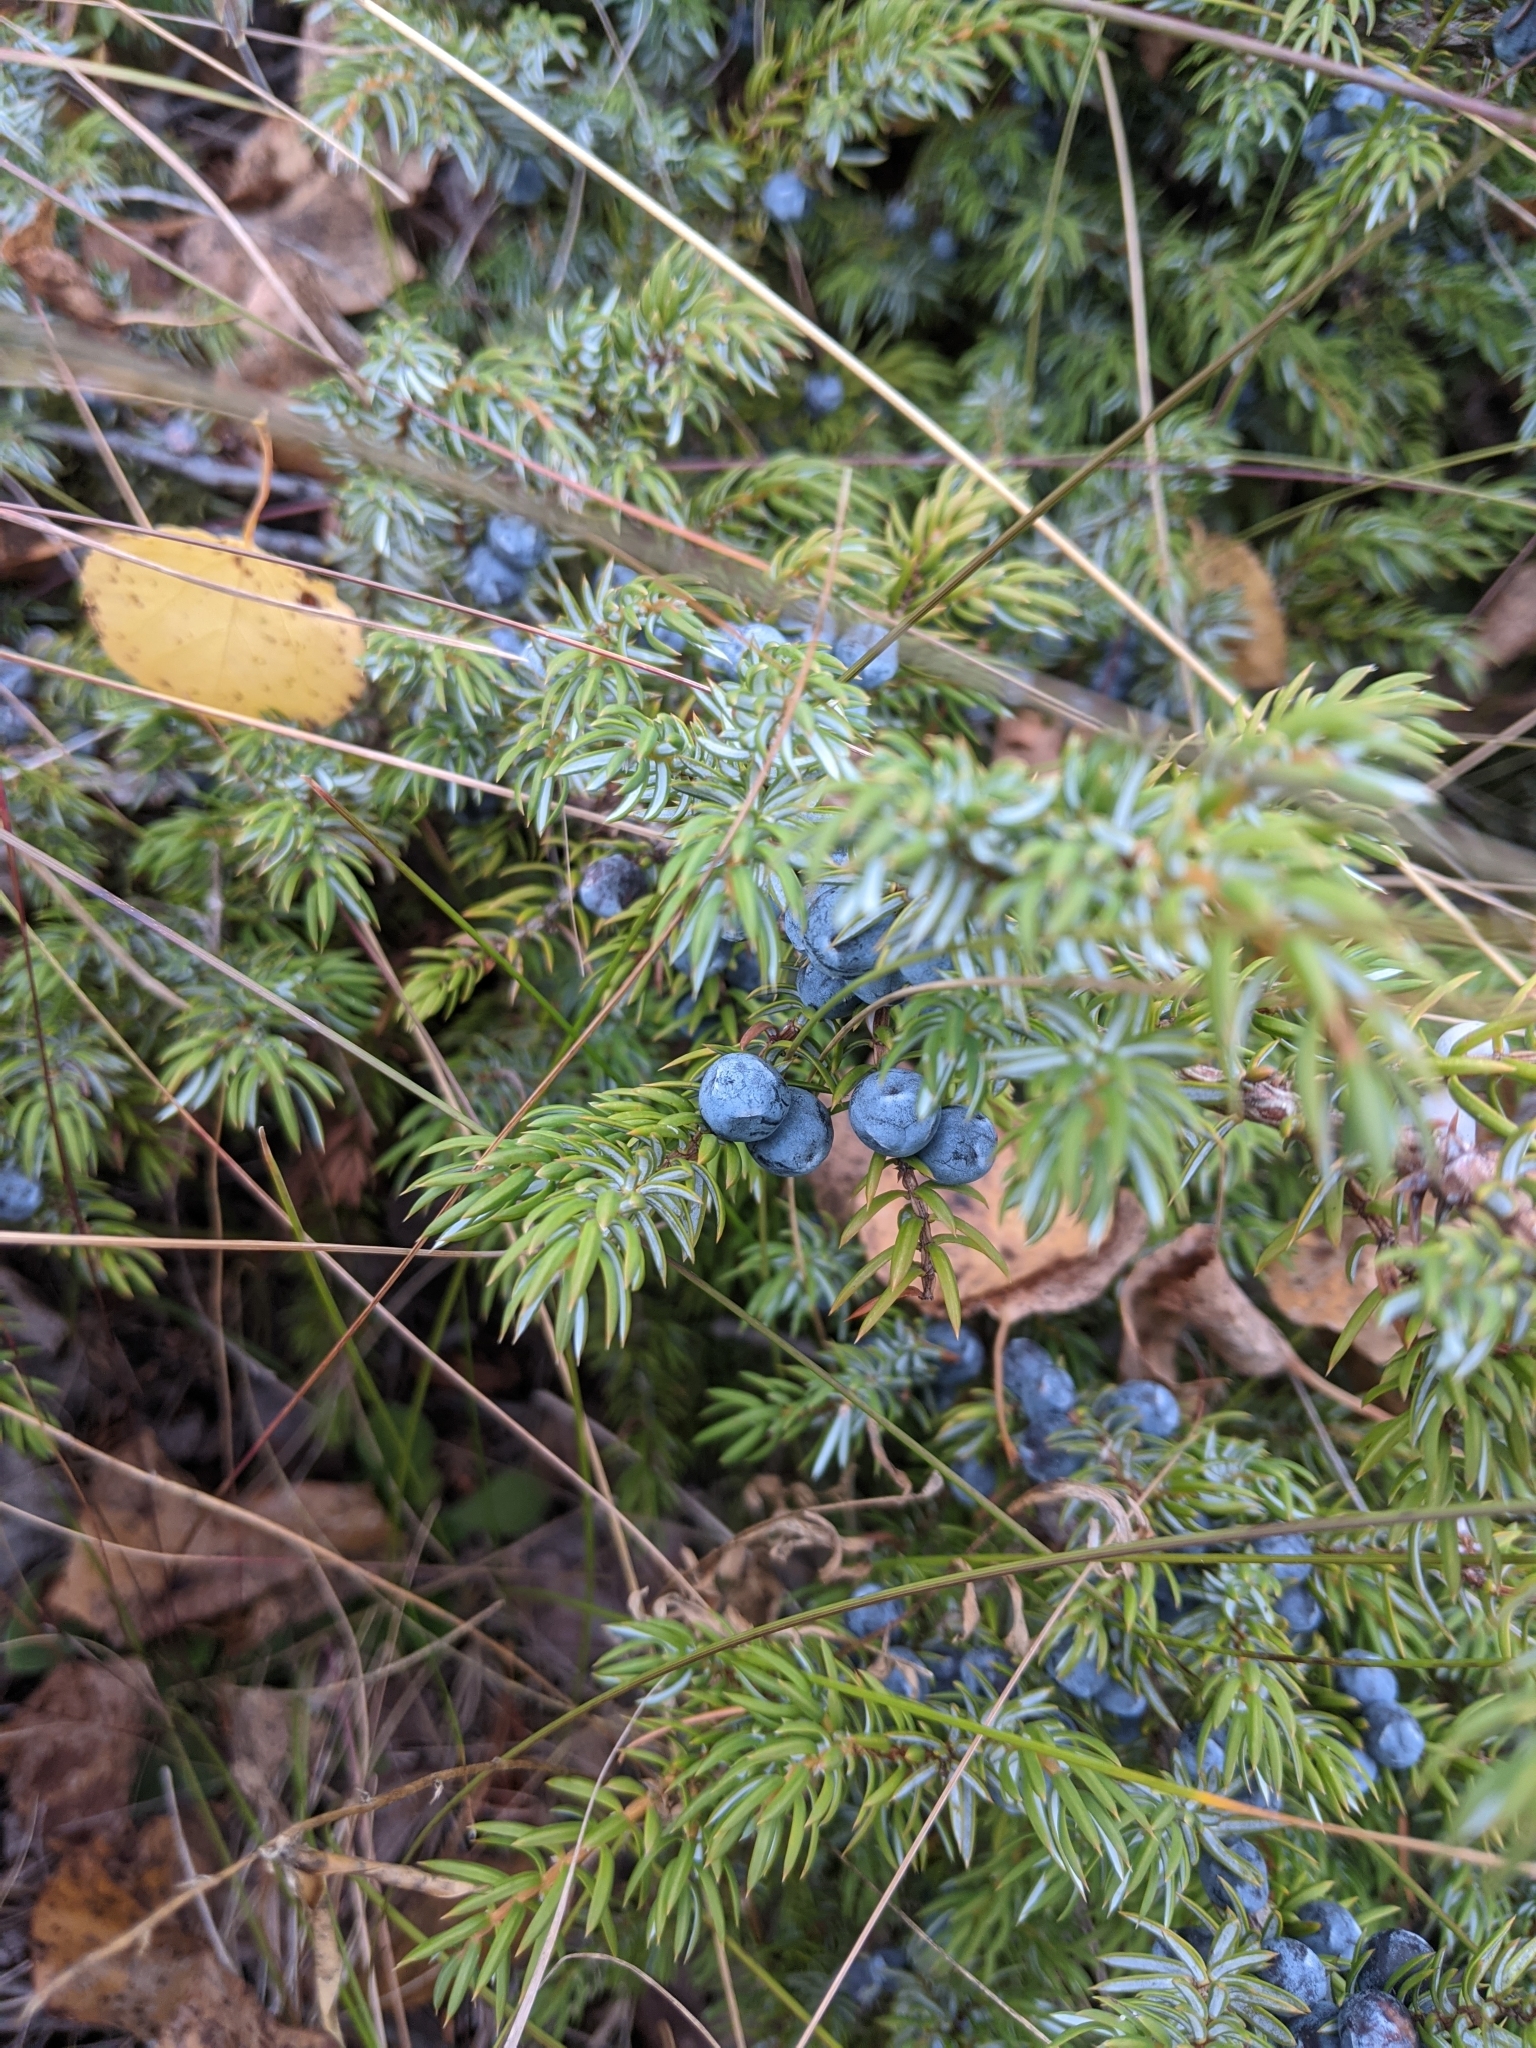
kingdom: Plantae
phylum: Tracheophyta
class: Pinopsida
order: Pinales
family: Cupressaceae
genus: Juniperus
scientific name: Juniperus communis
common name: Common juniper
